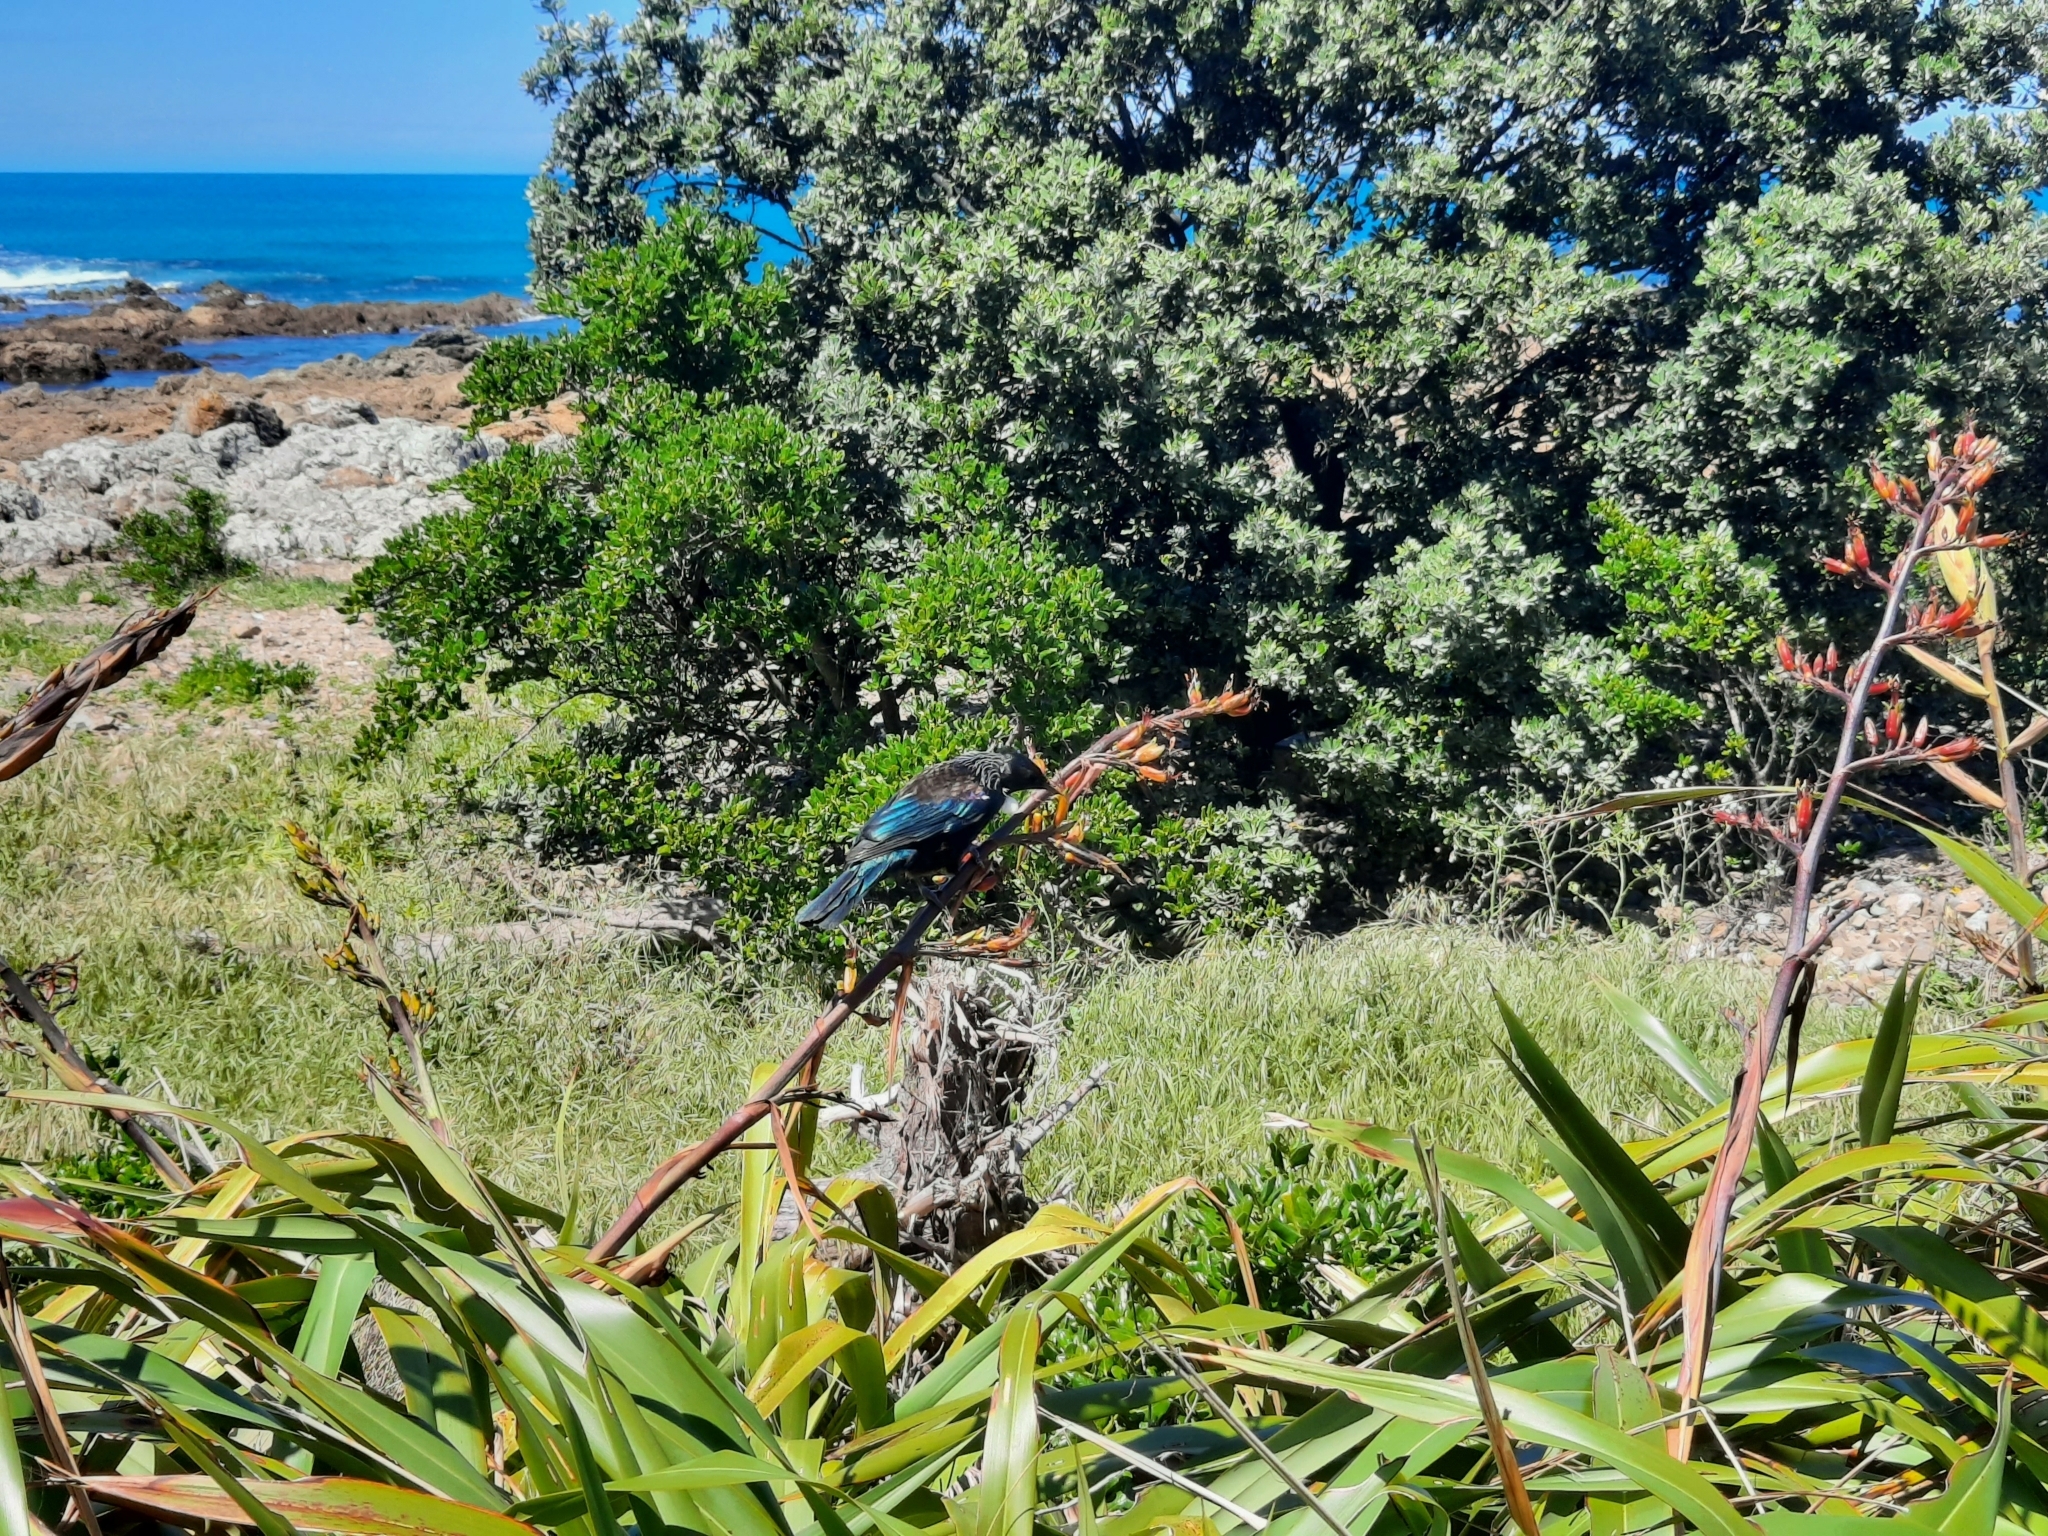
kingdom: Animalia
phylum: Chordata
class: Aves
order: Passeriformes
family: Meliphagidae
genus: Prosthemadera
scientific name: Prosthemadera novaeseelandiae
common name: Tui
